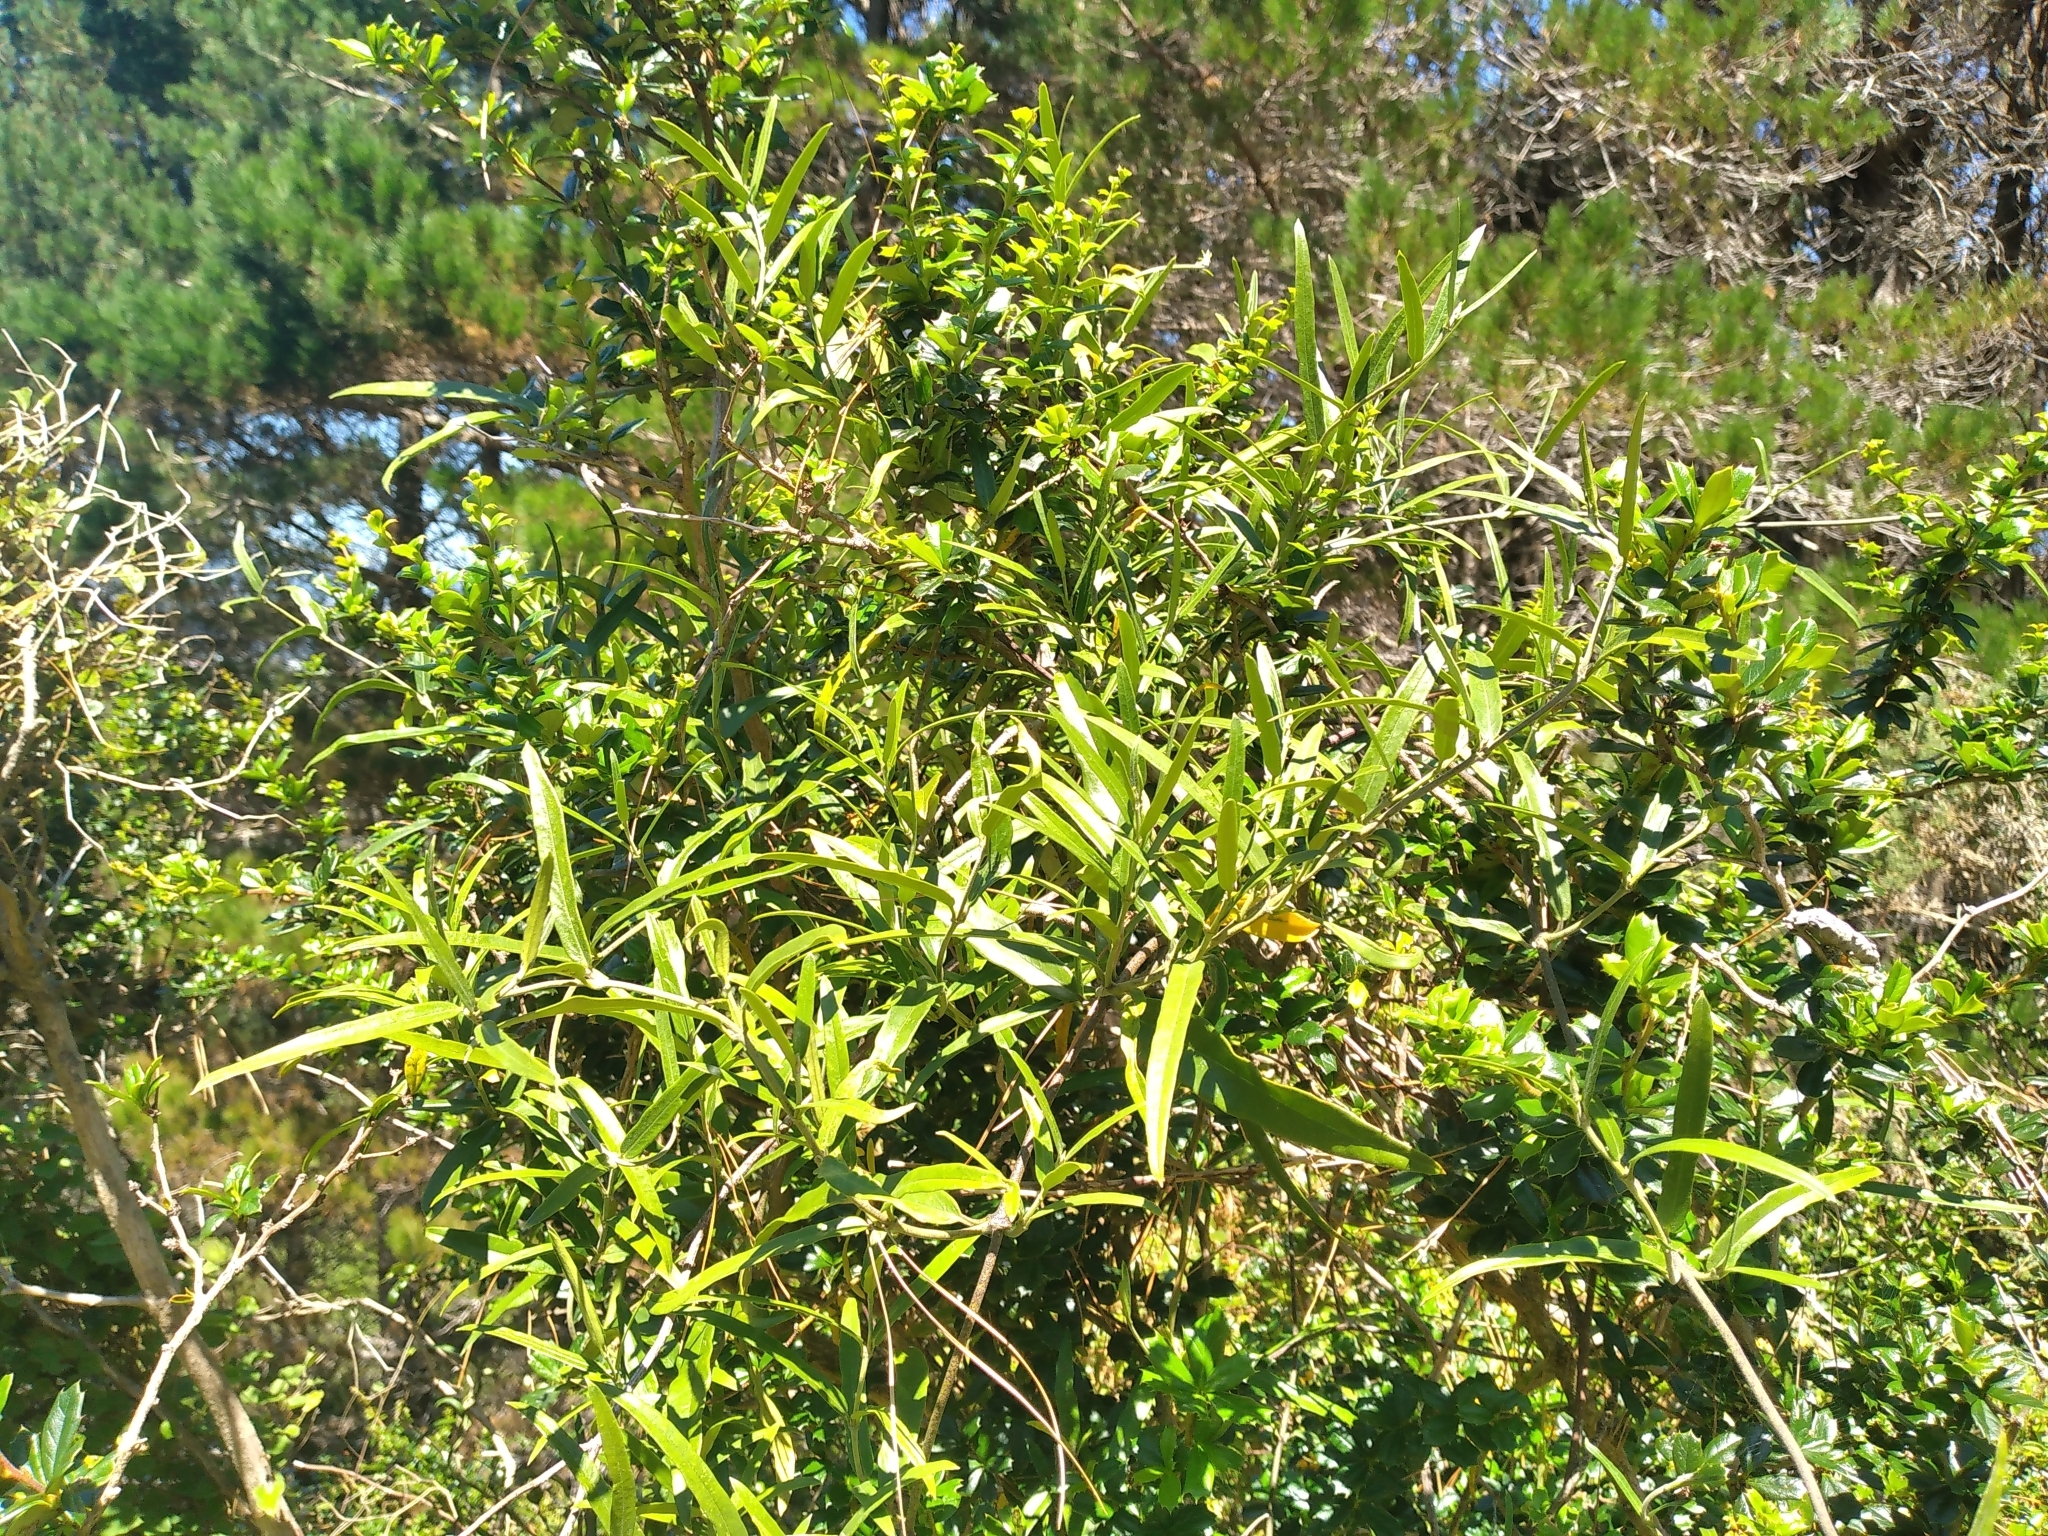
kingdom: Plantae
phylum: Tracheophyta
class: Magnoliopsida
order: Gentianales
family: Apocynaceae
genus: Parsonsia
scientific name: Parsonsia capsularis
